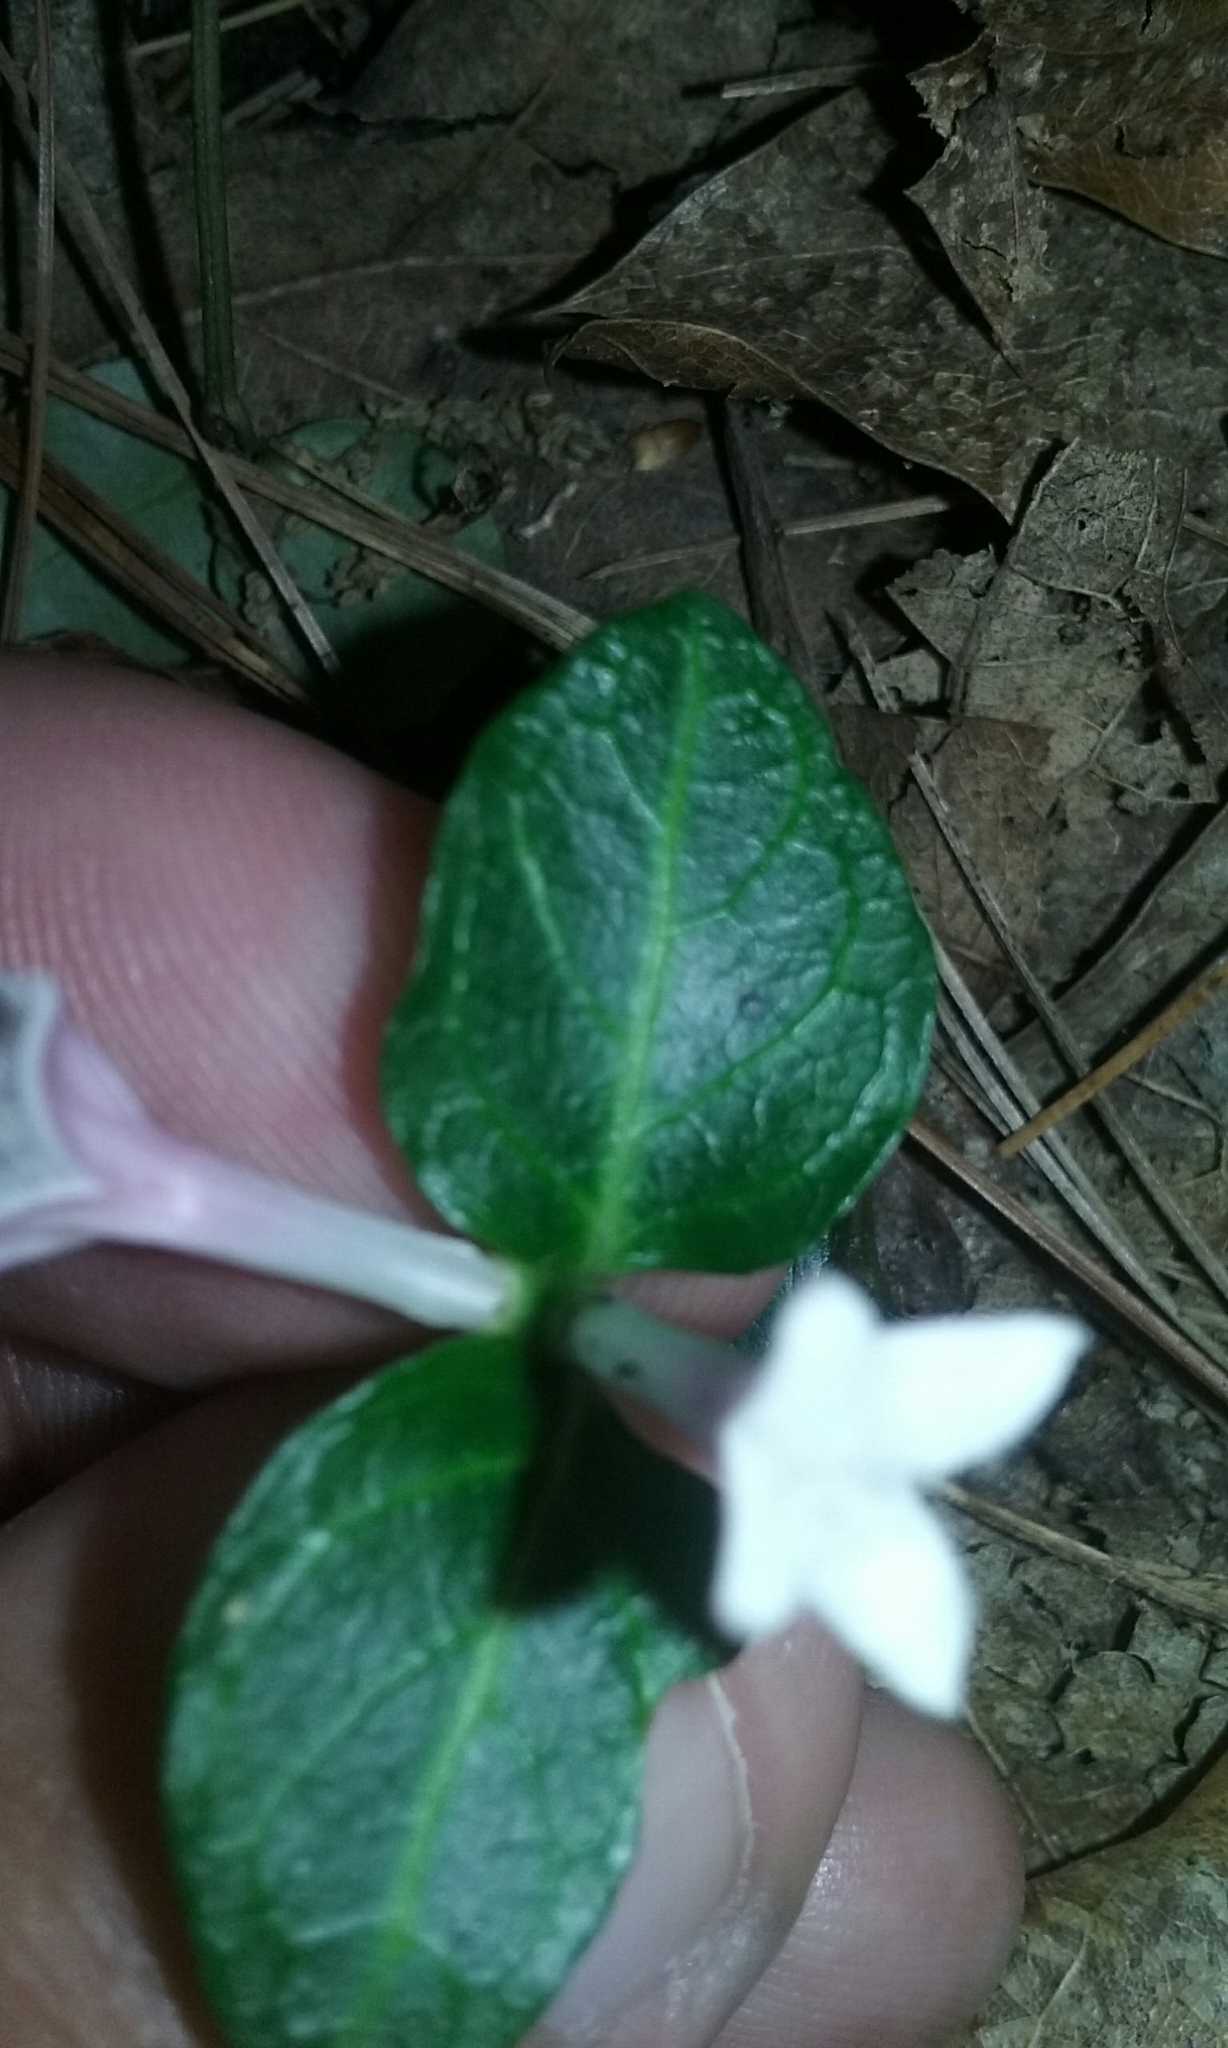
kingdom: Plantae
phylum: Tracheophyta
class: Magnoliopsida
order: Gentianales
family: Rubiaceae
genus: Mitchella
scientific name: Mitchella repens
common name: Partridge-berry
